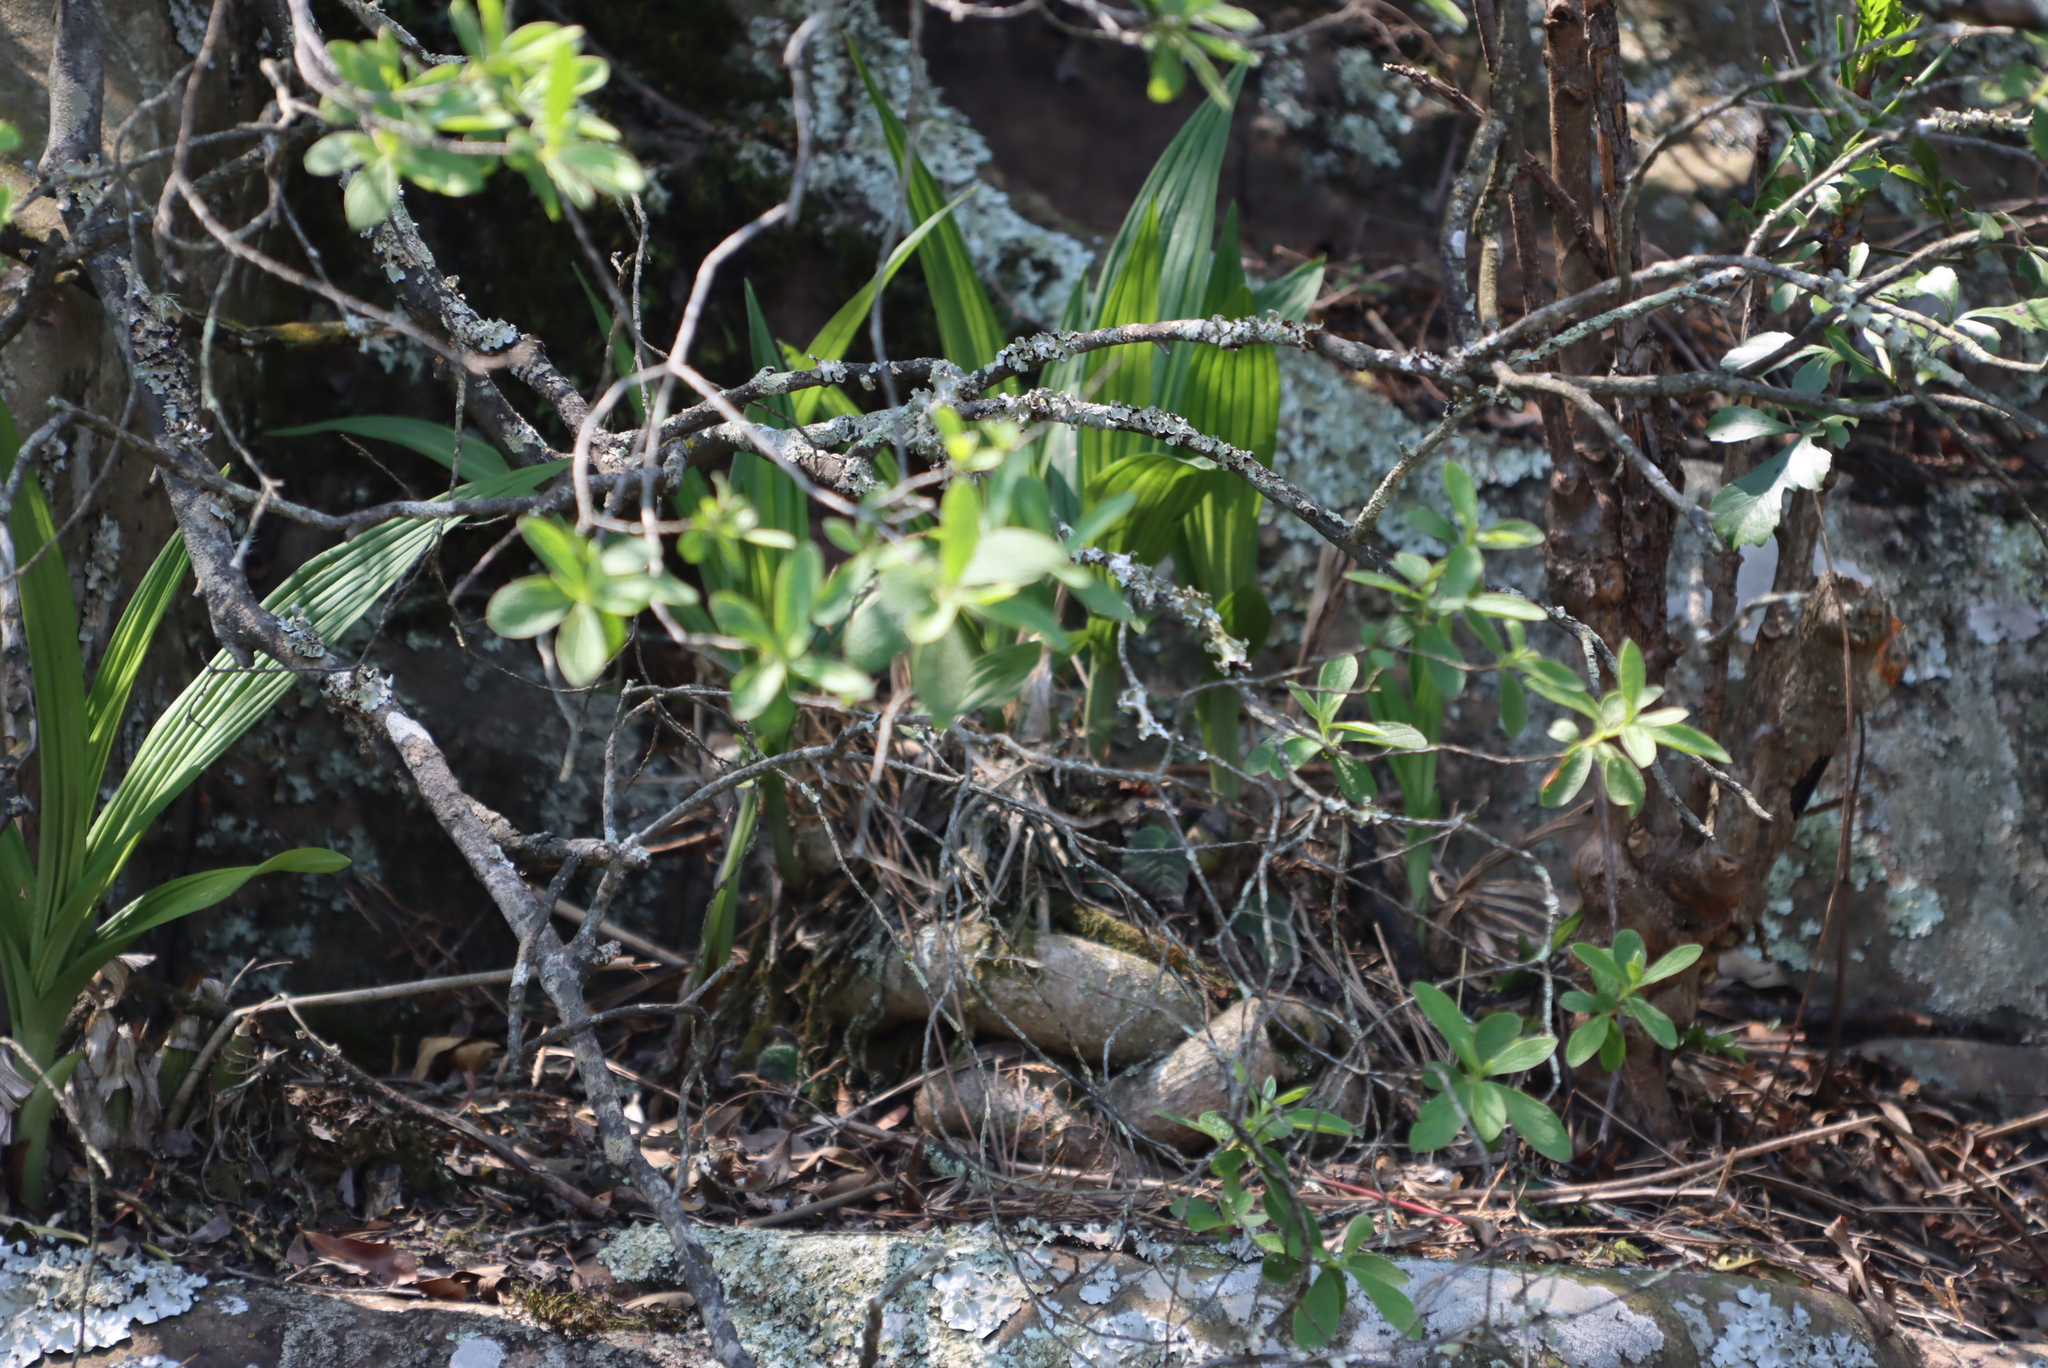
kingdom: Plantae
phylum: Tracheophyta
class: Liliopsida
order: Asparagales
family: Orchidaceae
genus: Eulophia
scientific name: Eulophia streptopetala
